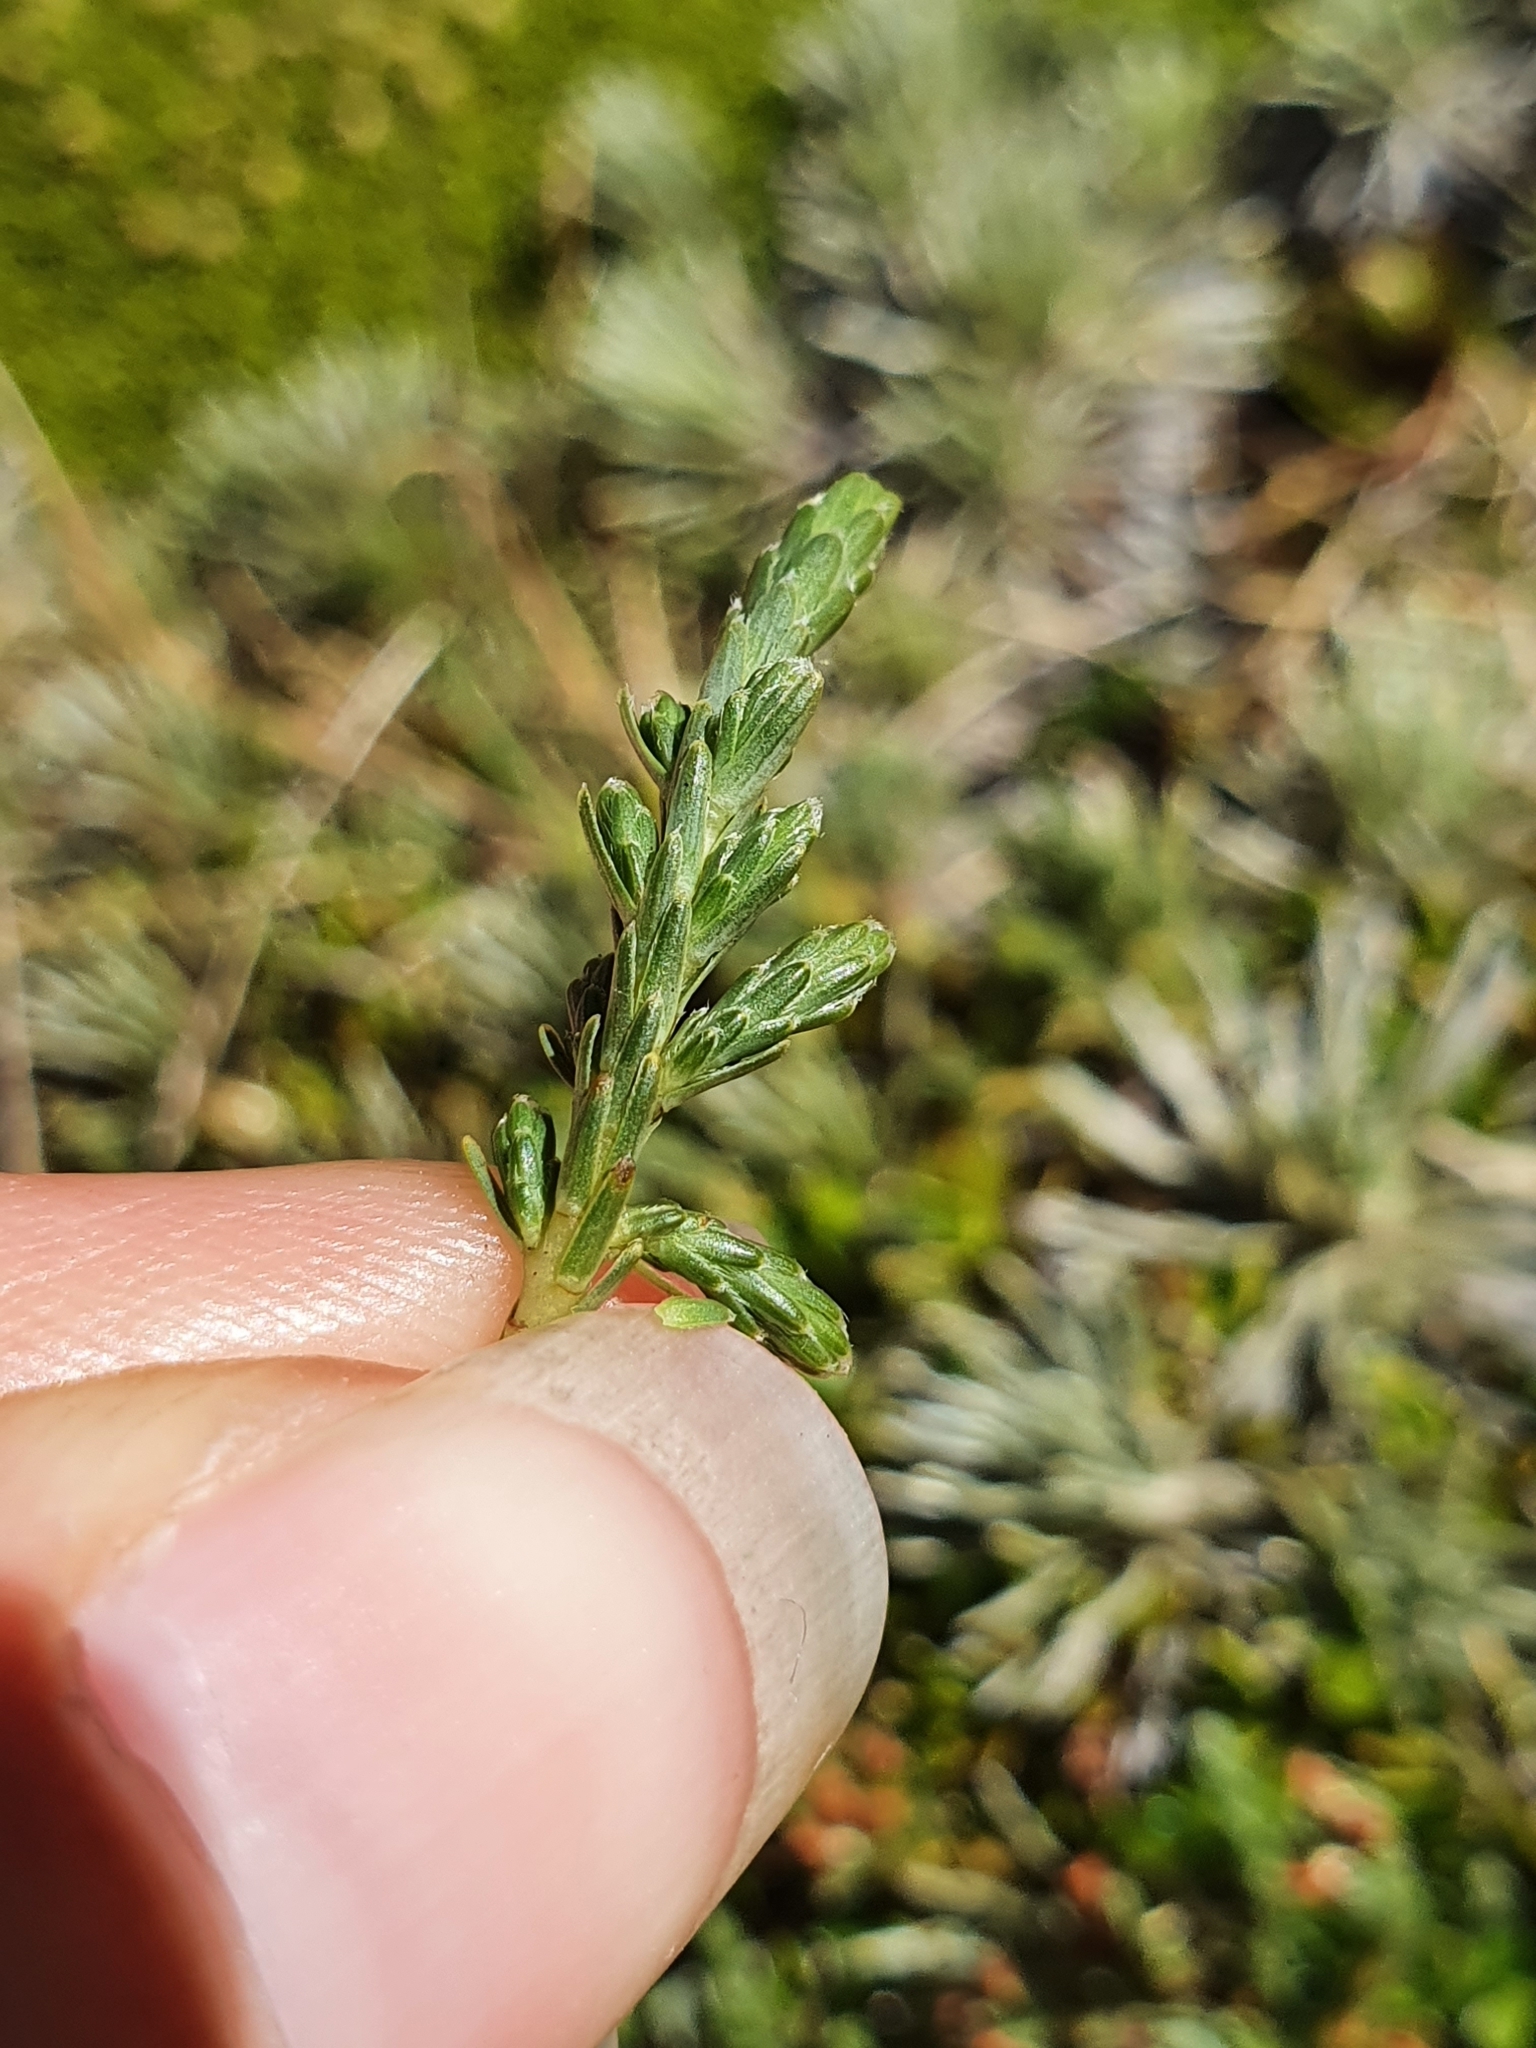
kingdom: Plantae
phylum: Tracheophyta
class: Magnoliopsida
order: Malvales
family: Thymelaeaceae
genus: Kelleria
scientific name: Kelleria dieffenbachii
